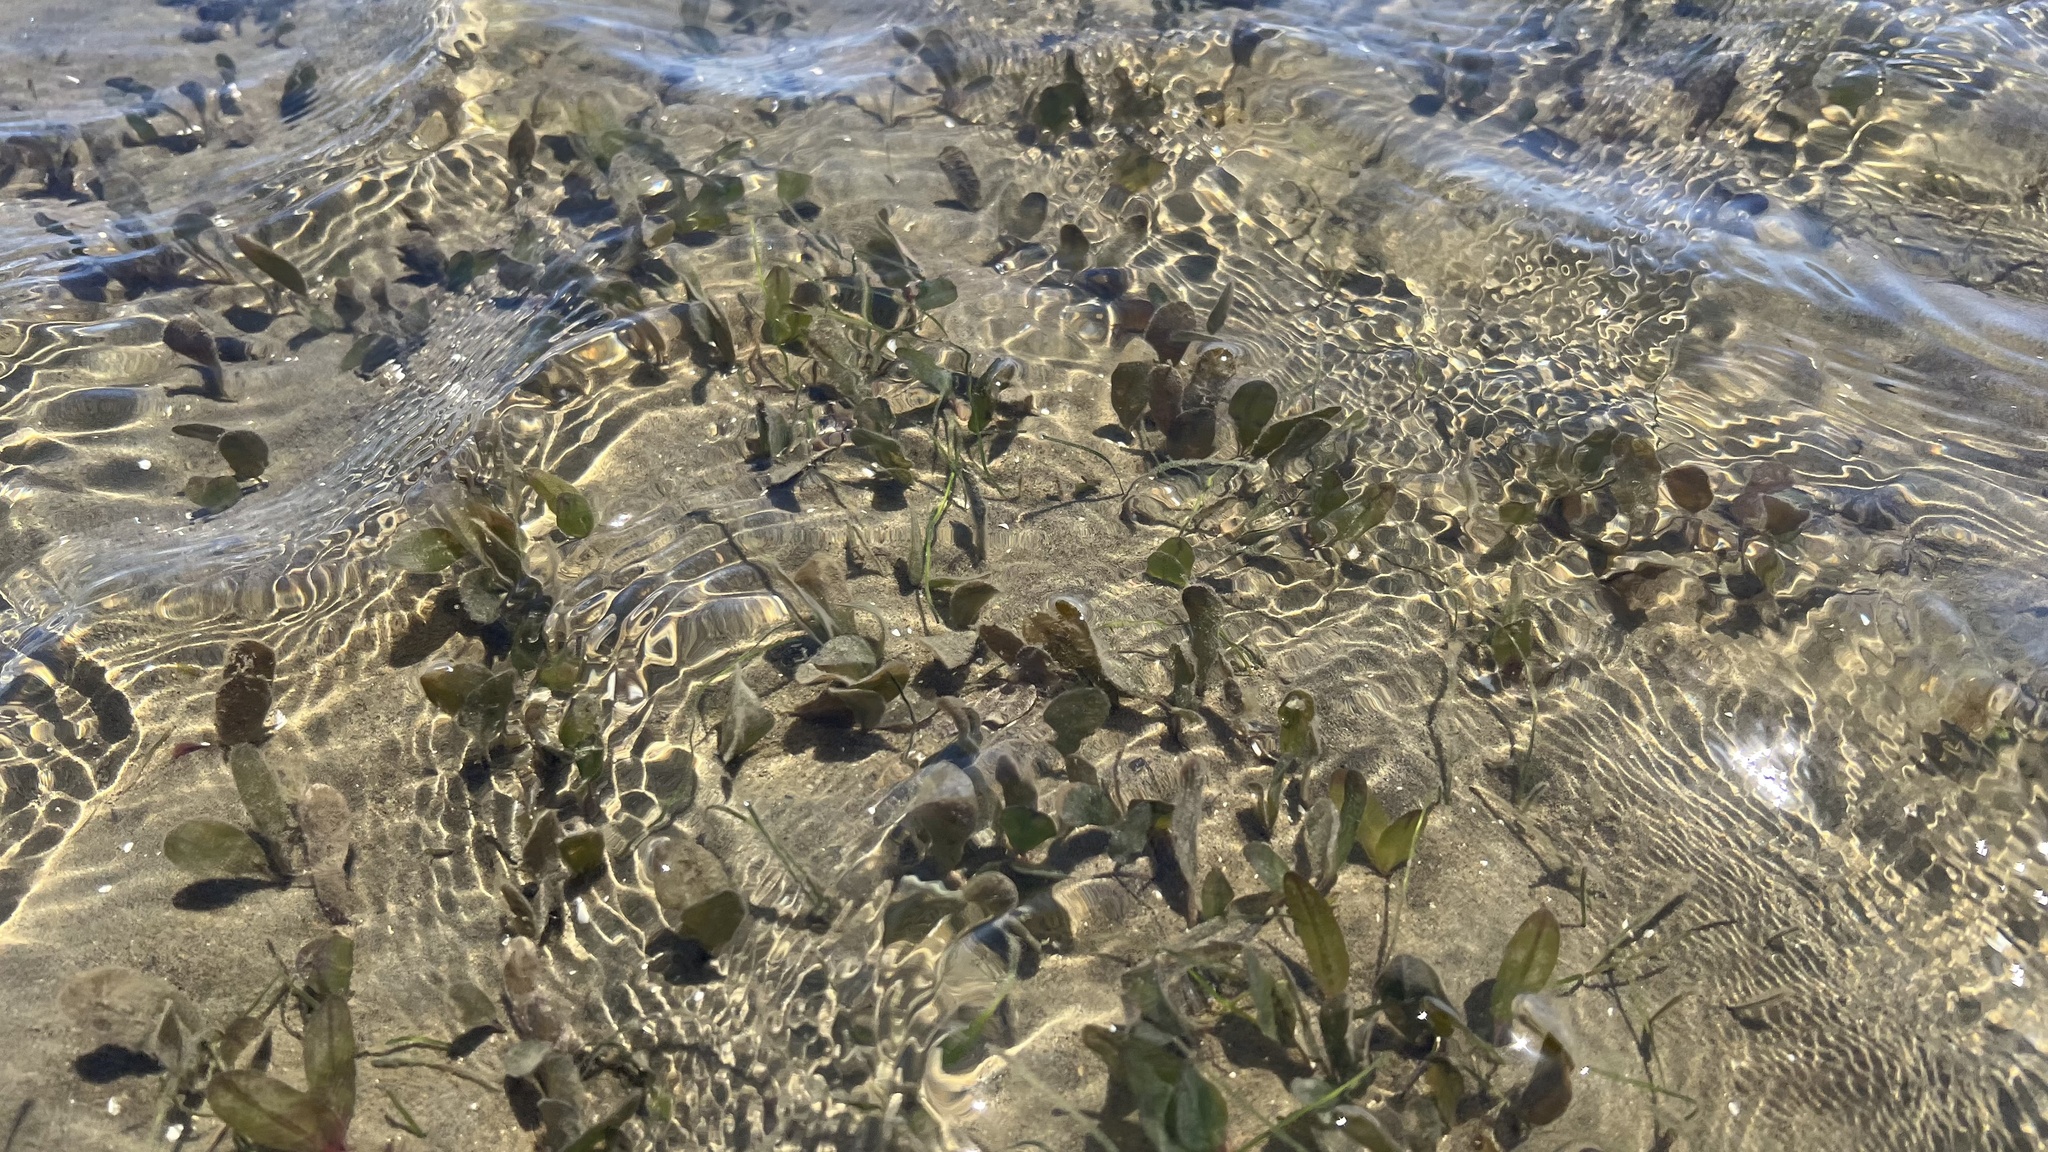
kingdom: Plantae
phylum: Tracheophyta
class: Liliopsida
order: Alismatales
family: Hydrocharitaceae
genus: Halophila
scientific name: Halophila ovalis
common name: Species code: ho
